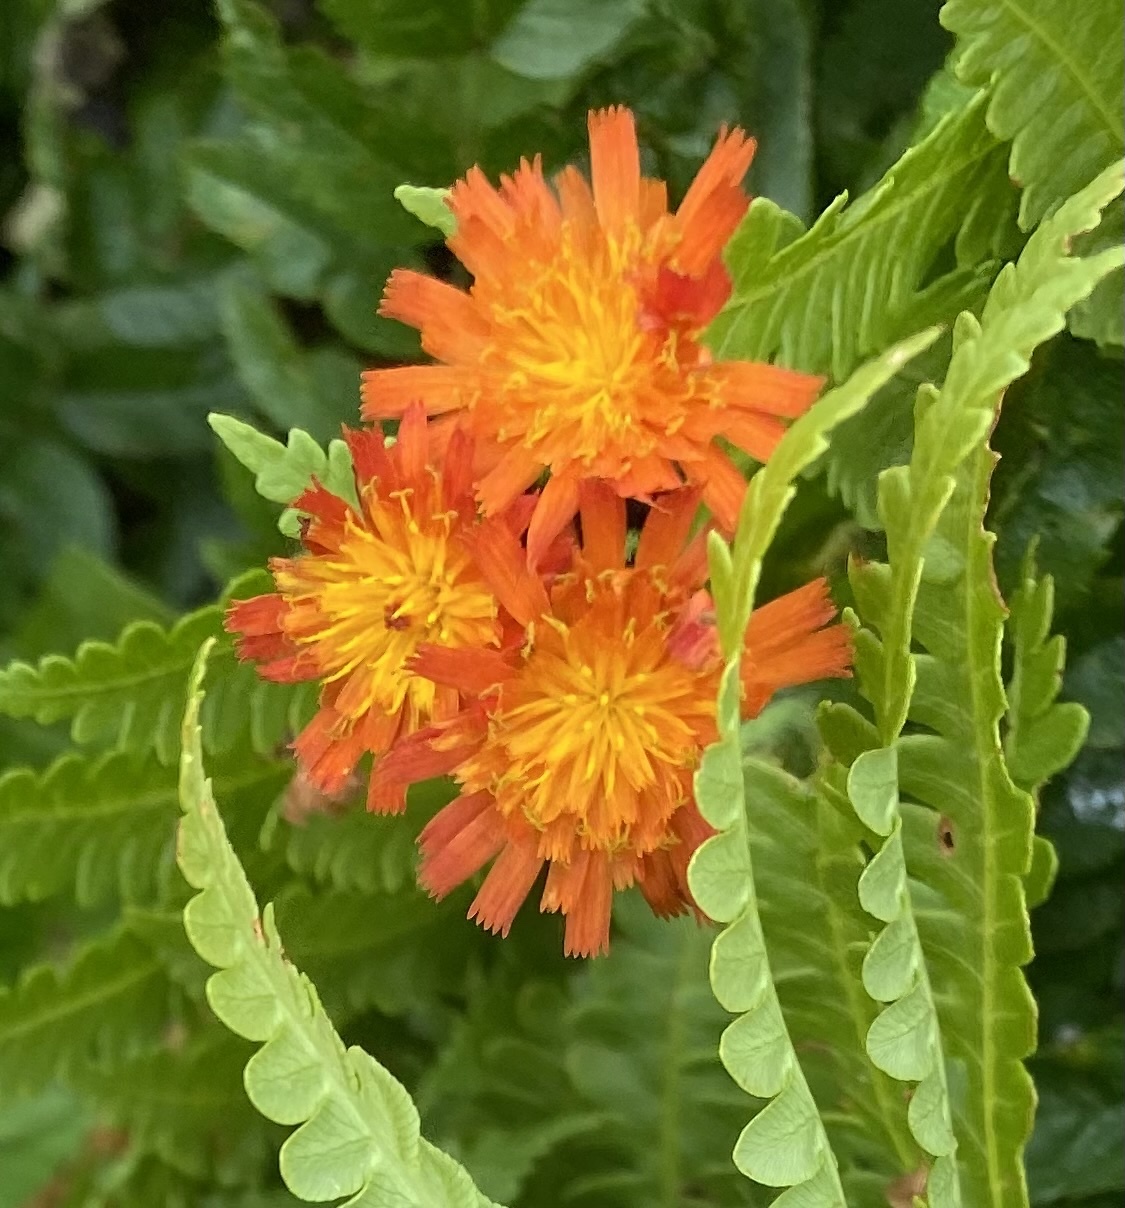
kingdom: Plantae
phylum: Tracheophyta
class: Magnoliopsida
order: Asterales
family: Asteraceae
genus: Pilosella
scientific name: Pilosella aurantiaca
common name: Fox-and-cubs
